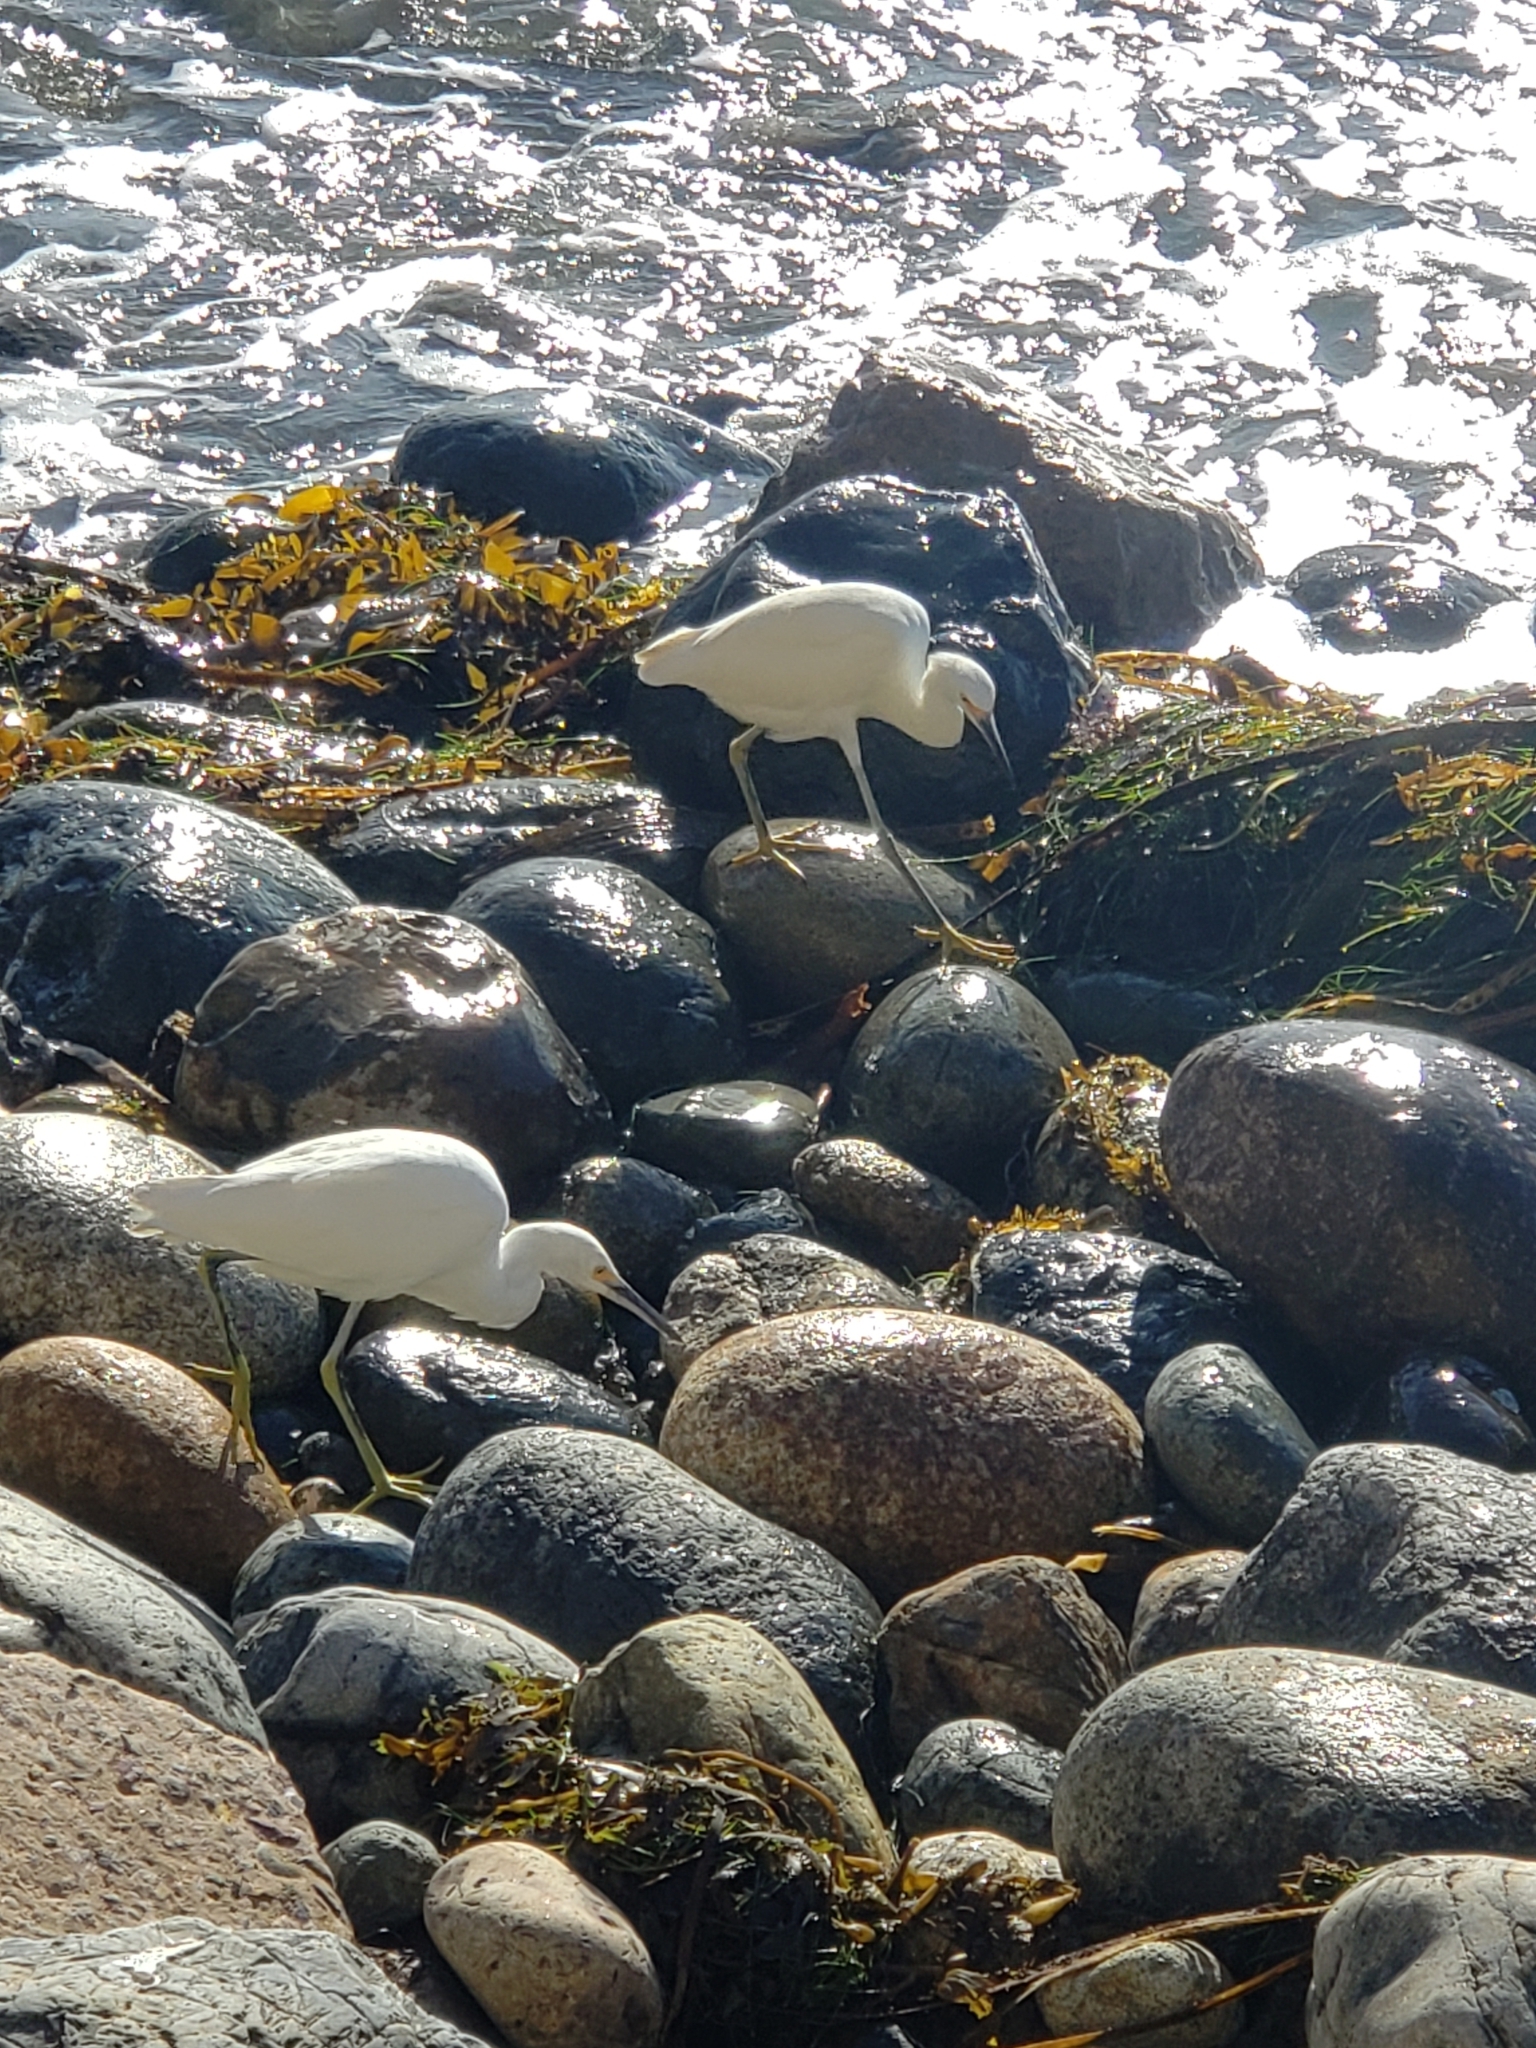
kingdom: Animalia
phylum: Chordata
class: Aves
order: Pelecaniformes
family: Ardeidae
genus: Egretta
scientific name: Egretta thula
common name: Snowy egret
